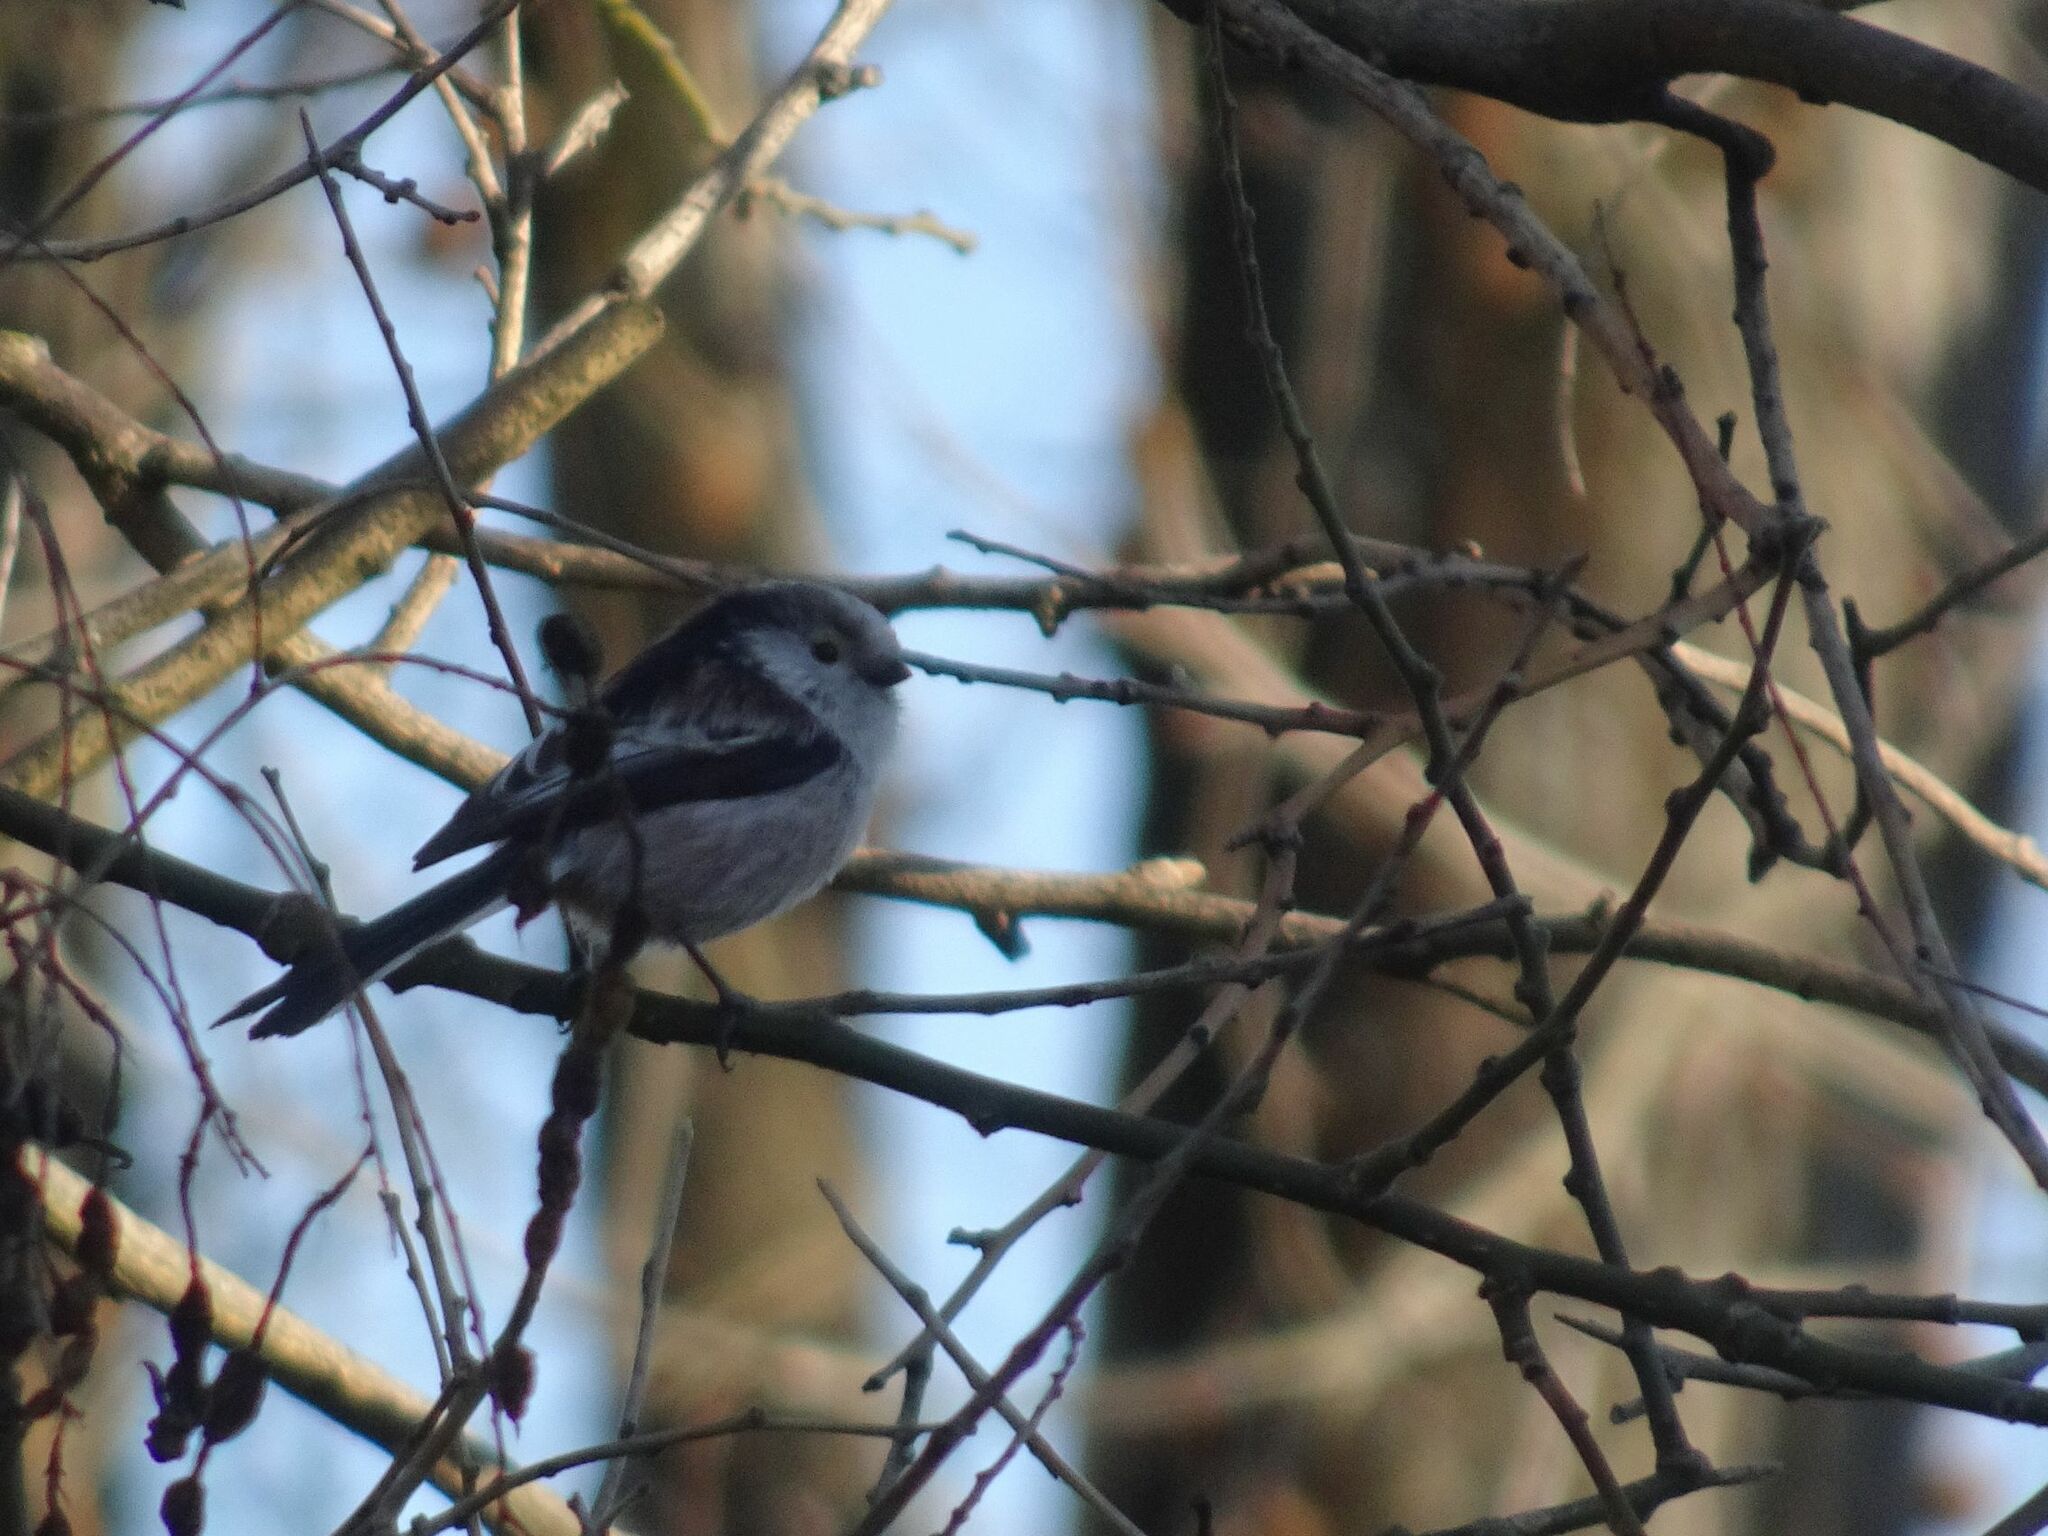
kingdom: Animalia
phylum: Chordata
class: Aves
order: Passeriformes
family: Aegithalidae
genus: Aegithalos
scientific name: Aegithalos caudatus
